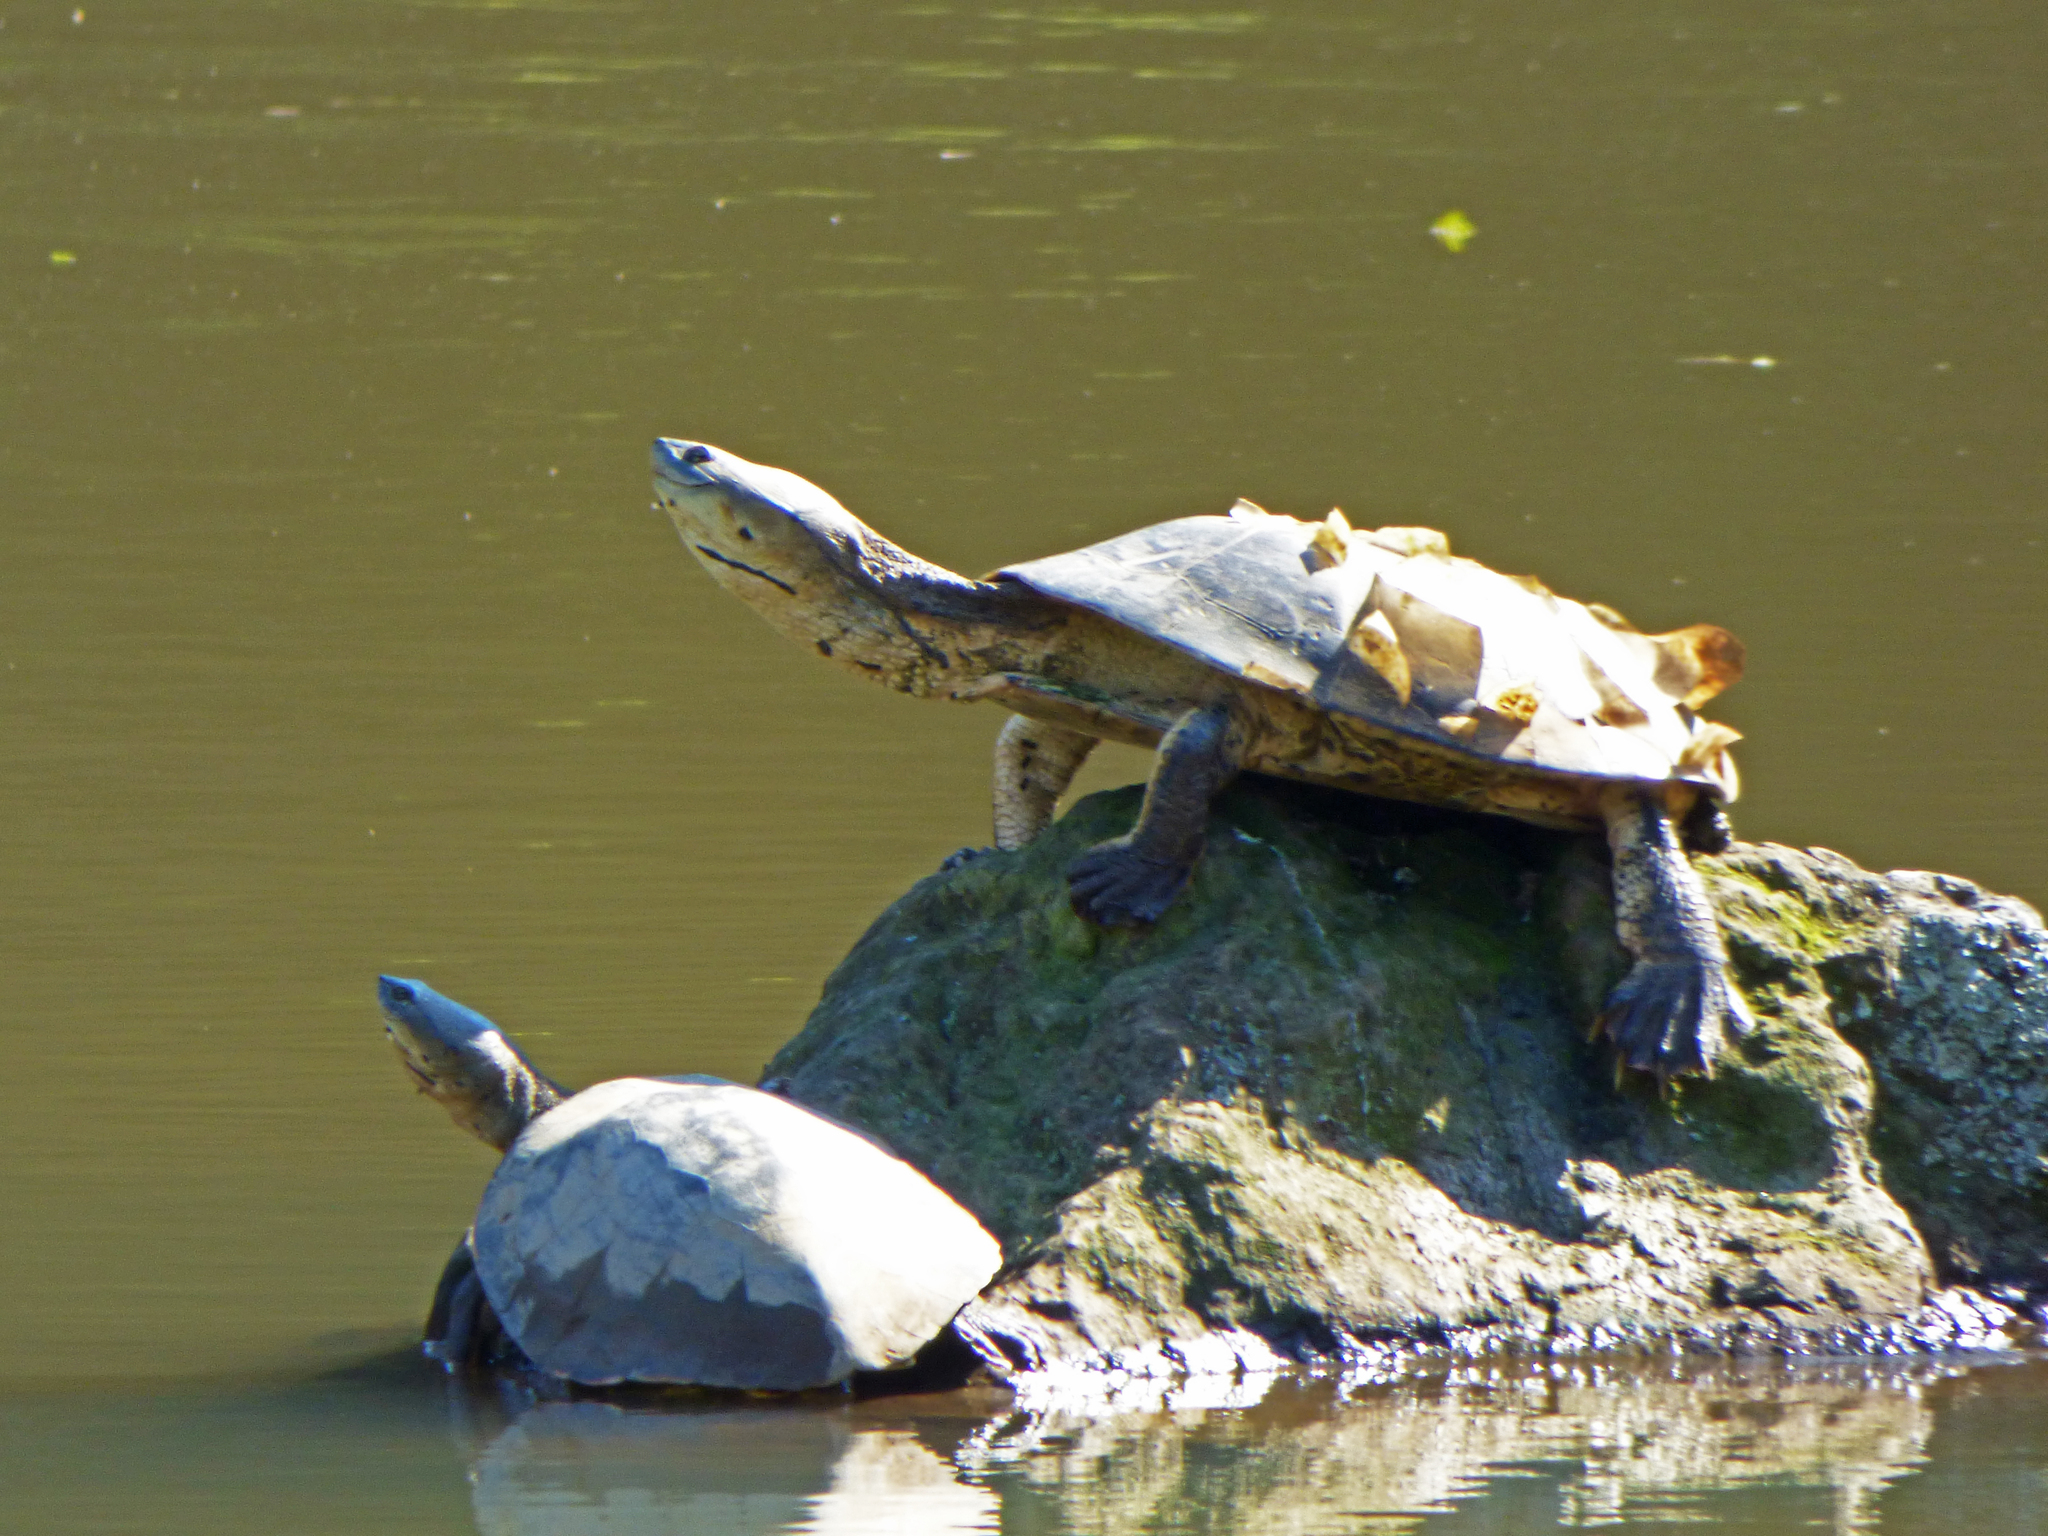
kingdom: Animalia
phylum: Chordata
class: Testudines
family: Chelidae
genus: Phrynops
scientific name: Phrynops hilarii
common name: Side-necked turtle of saint hillaire
